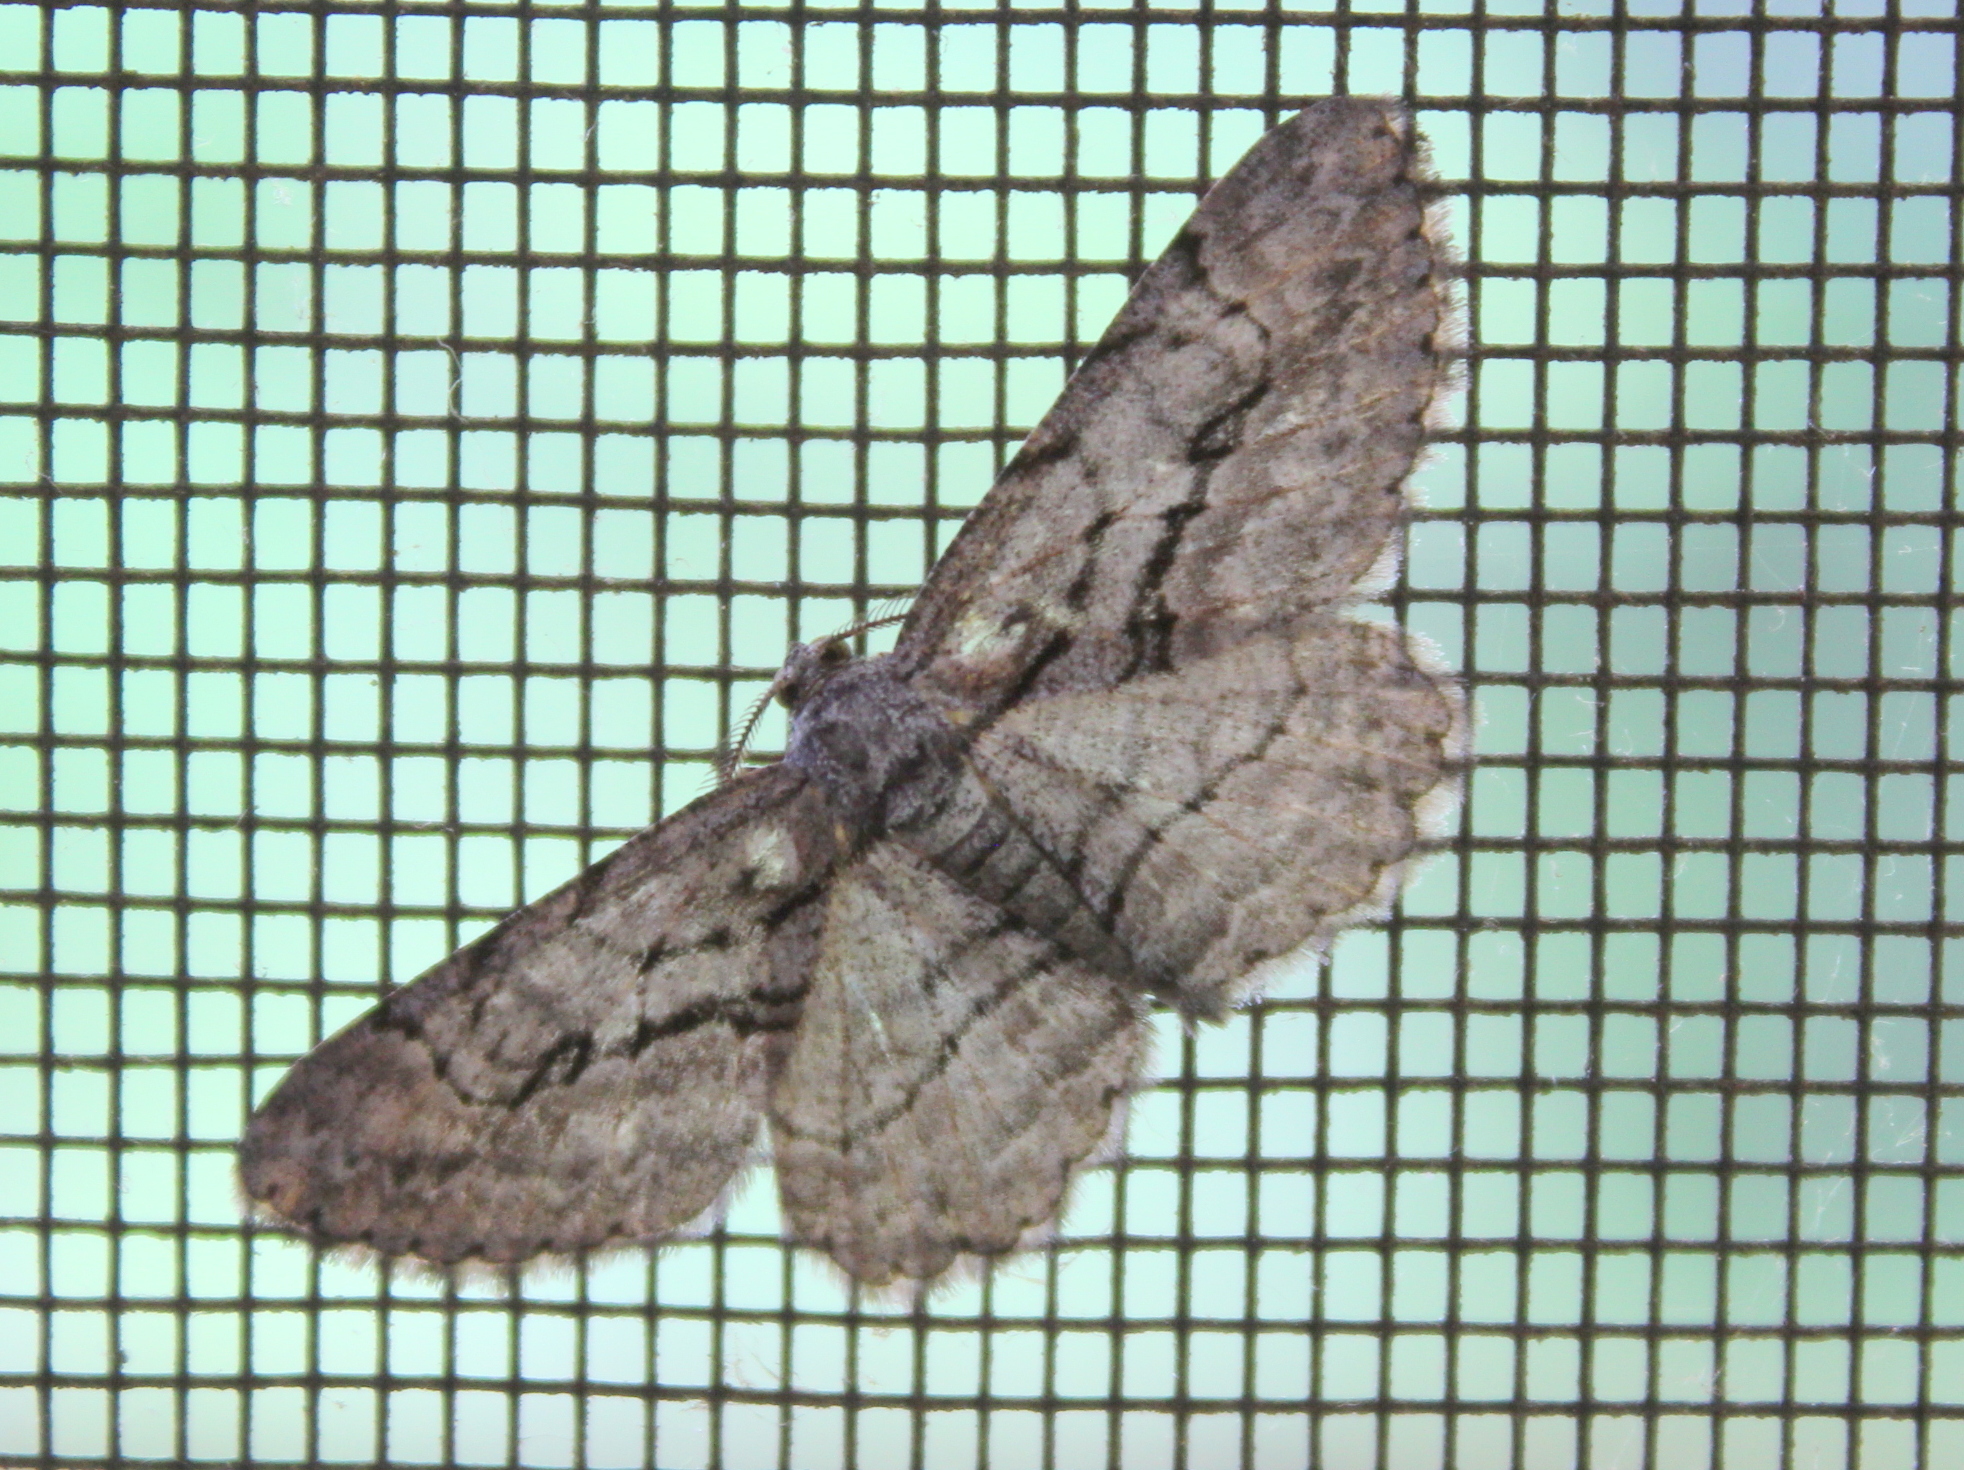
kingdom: Animalia
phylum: Arthropoda
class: Insecta
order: Lepidoptera
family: Geometridae
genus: Anavitrinella
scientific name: Anavitrinella pampinaria
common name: Common gray
